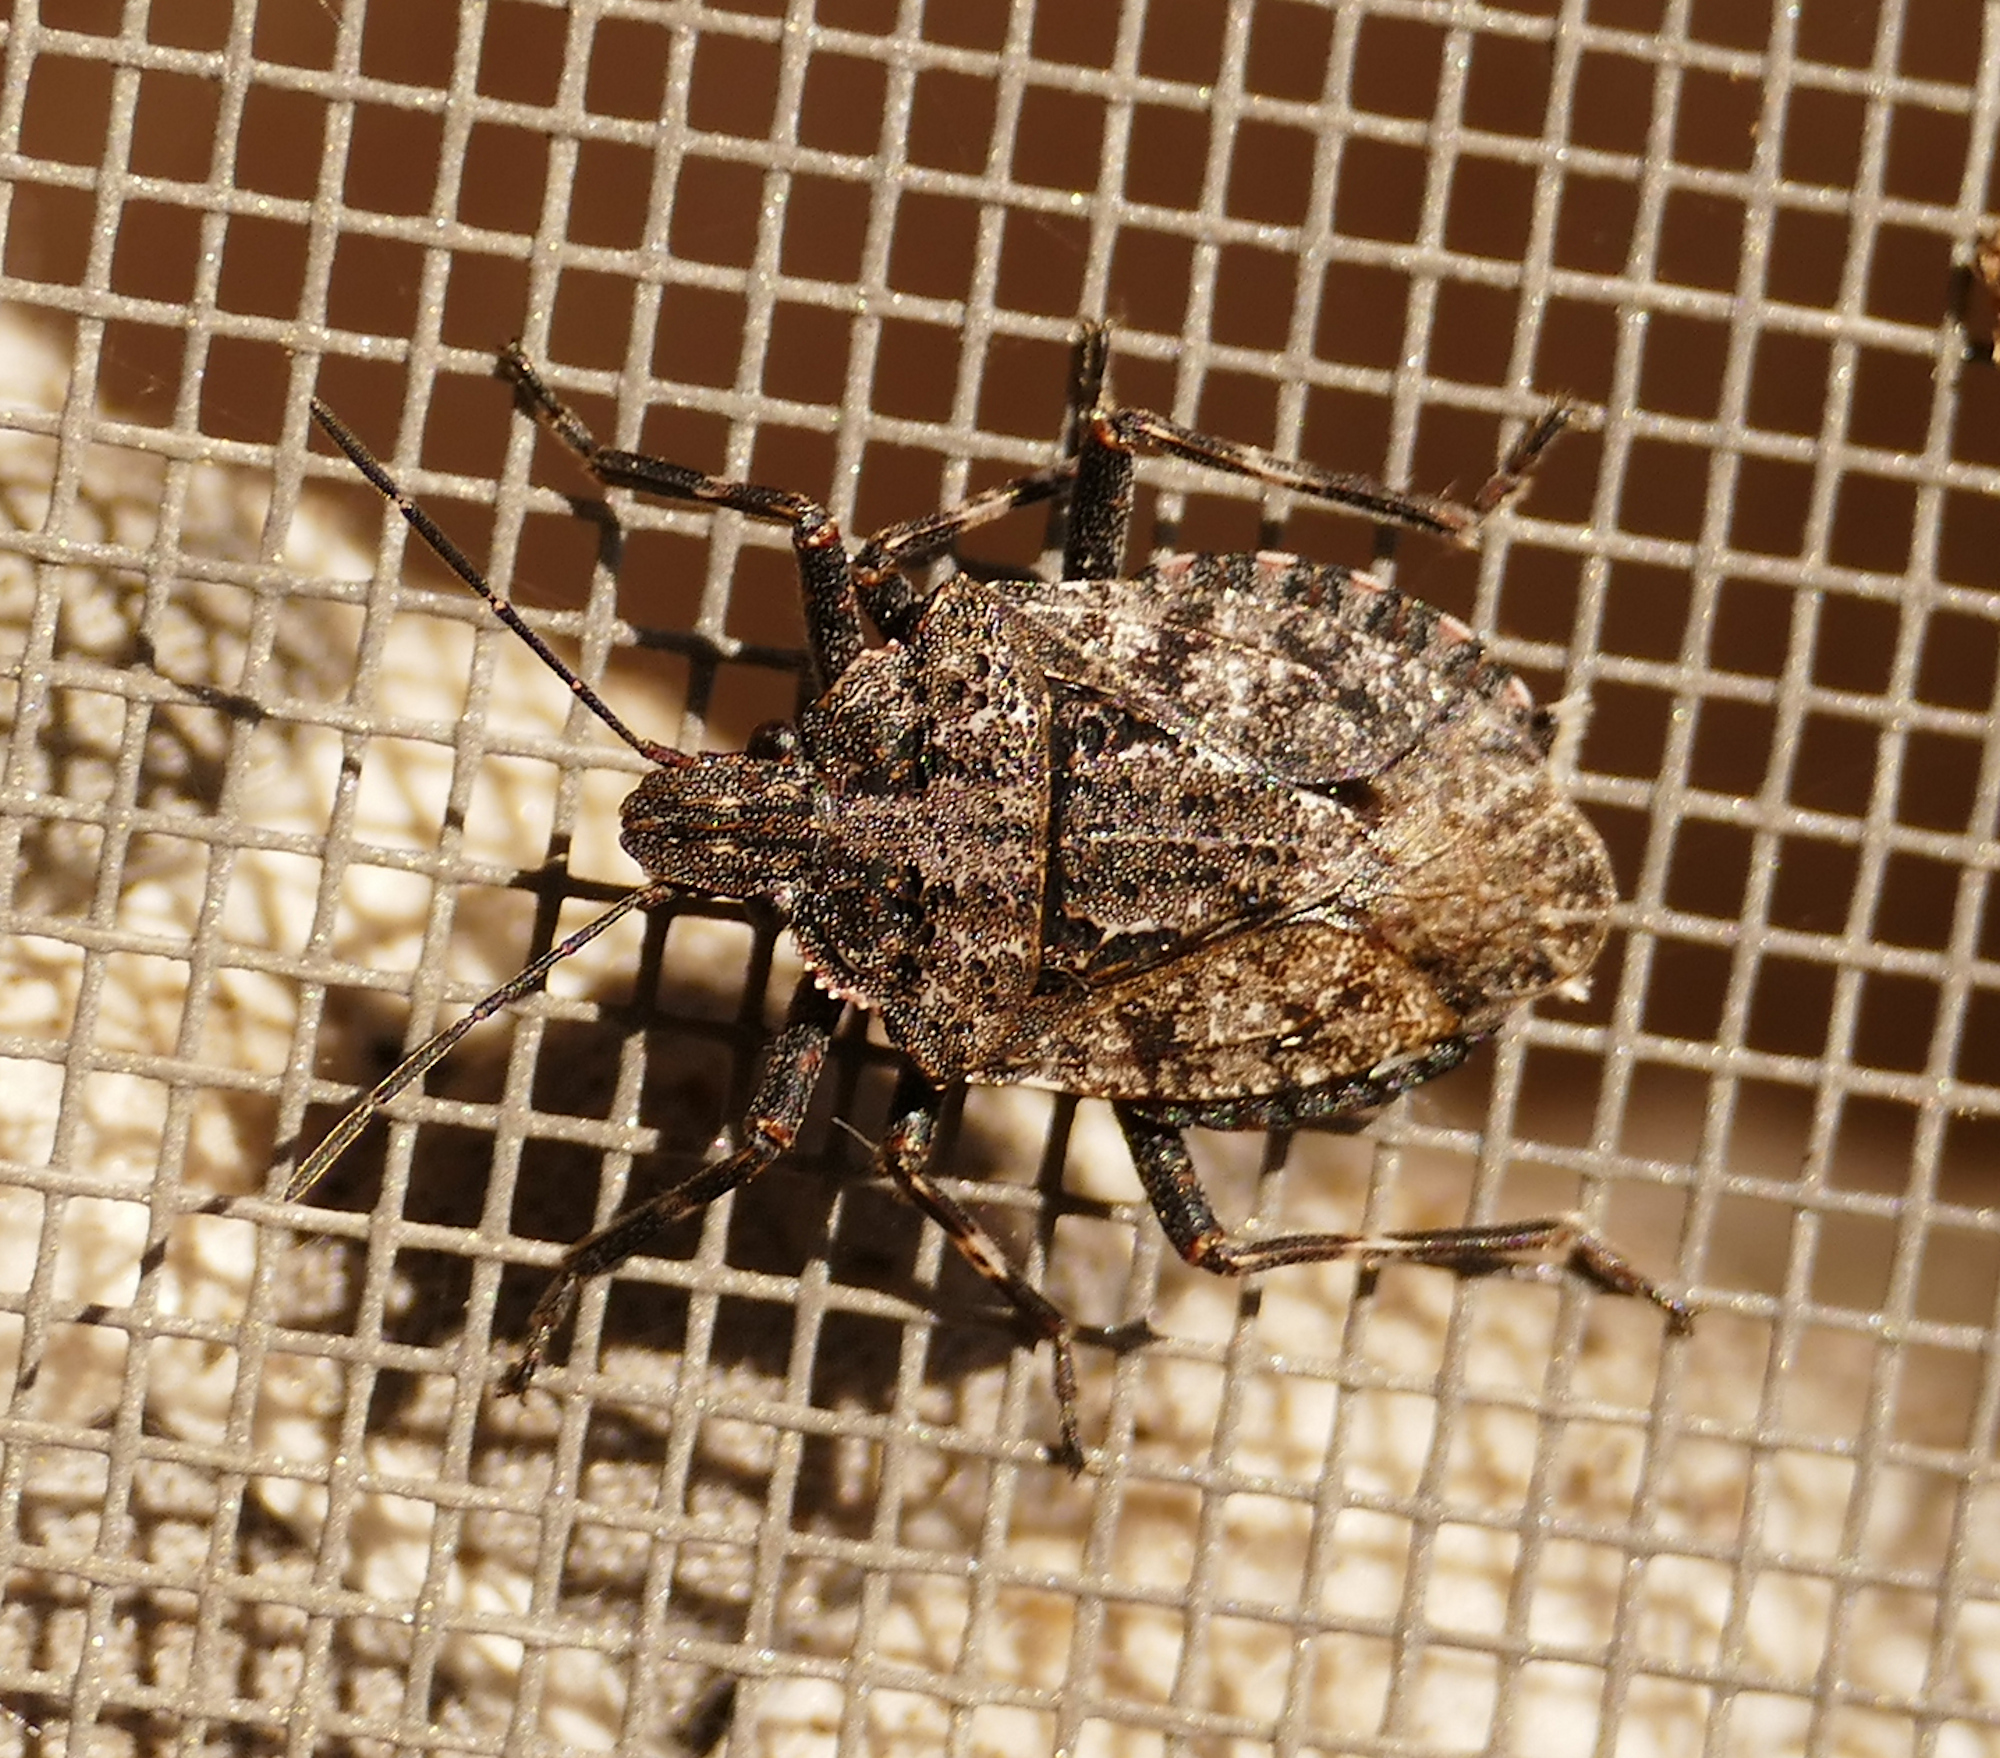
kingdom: Animalia
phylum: Arthropoda
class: Insecta
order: Hemiptera
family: Pentatomidae
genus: Brochymena
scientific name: Brochymena hoppingi
